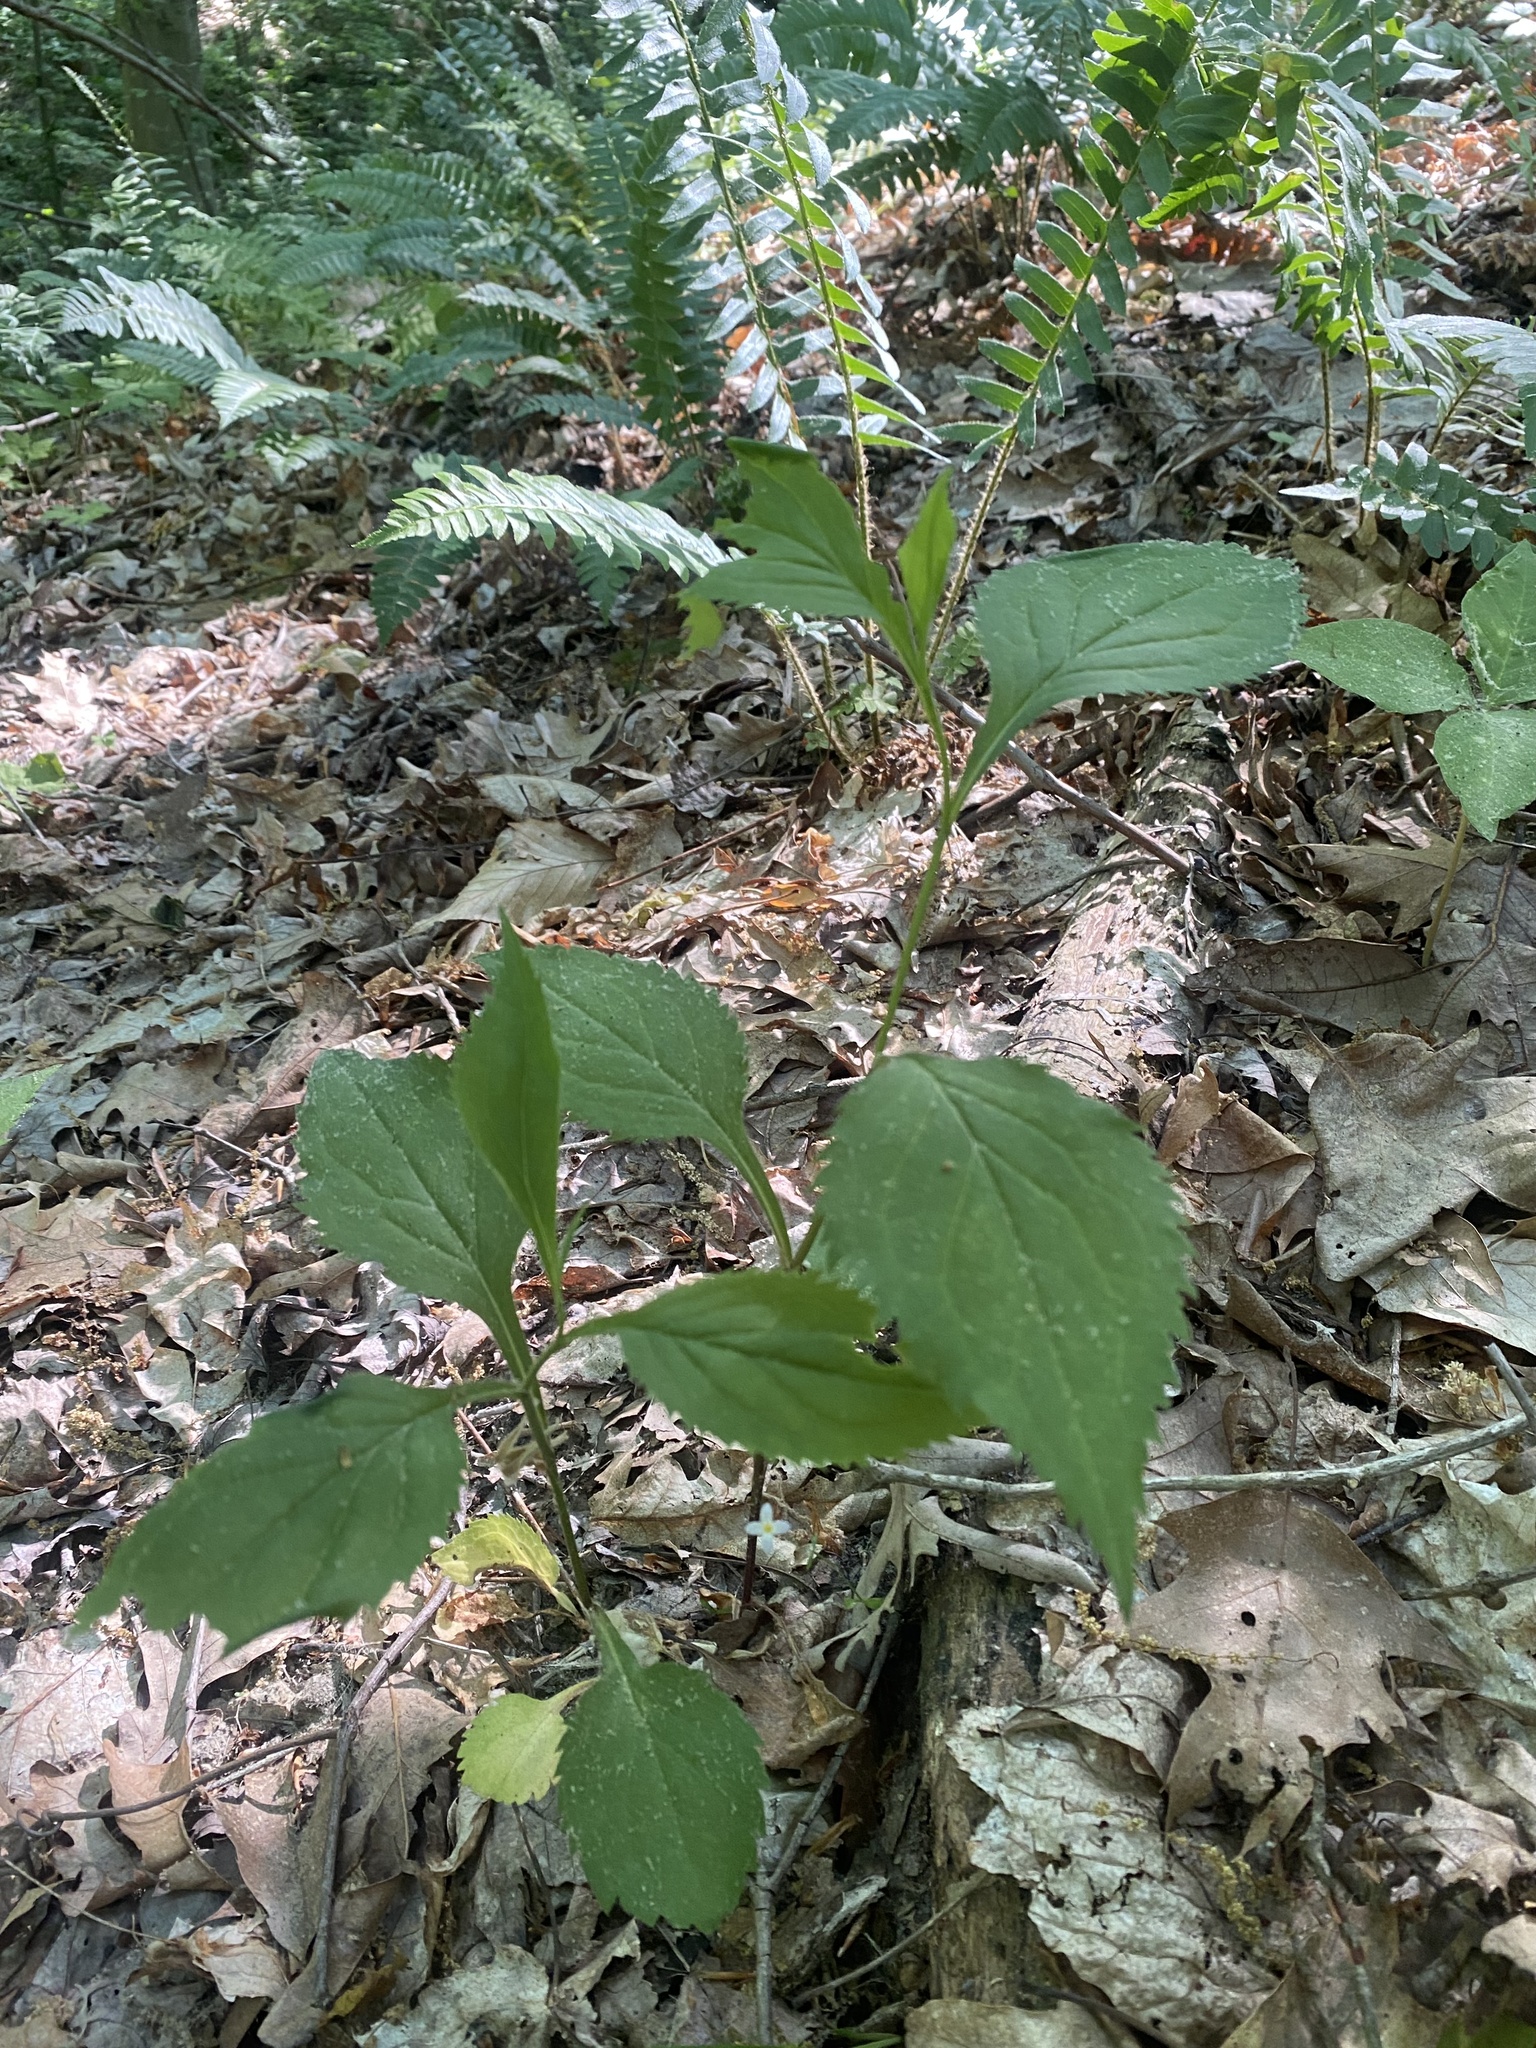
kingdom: Plantae
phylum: Tracheophyta
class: Magnoliopsida
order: Asterales
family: Asteraceae
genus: Solidago
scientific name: Solidago flexicaulis
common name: Zig-zag goldenrod
